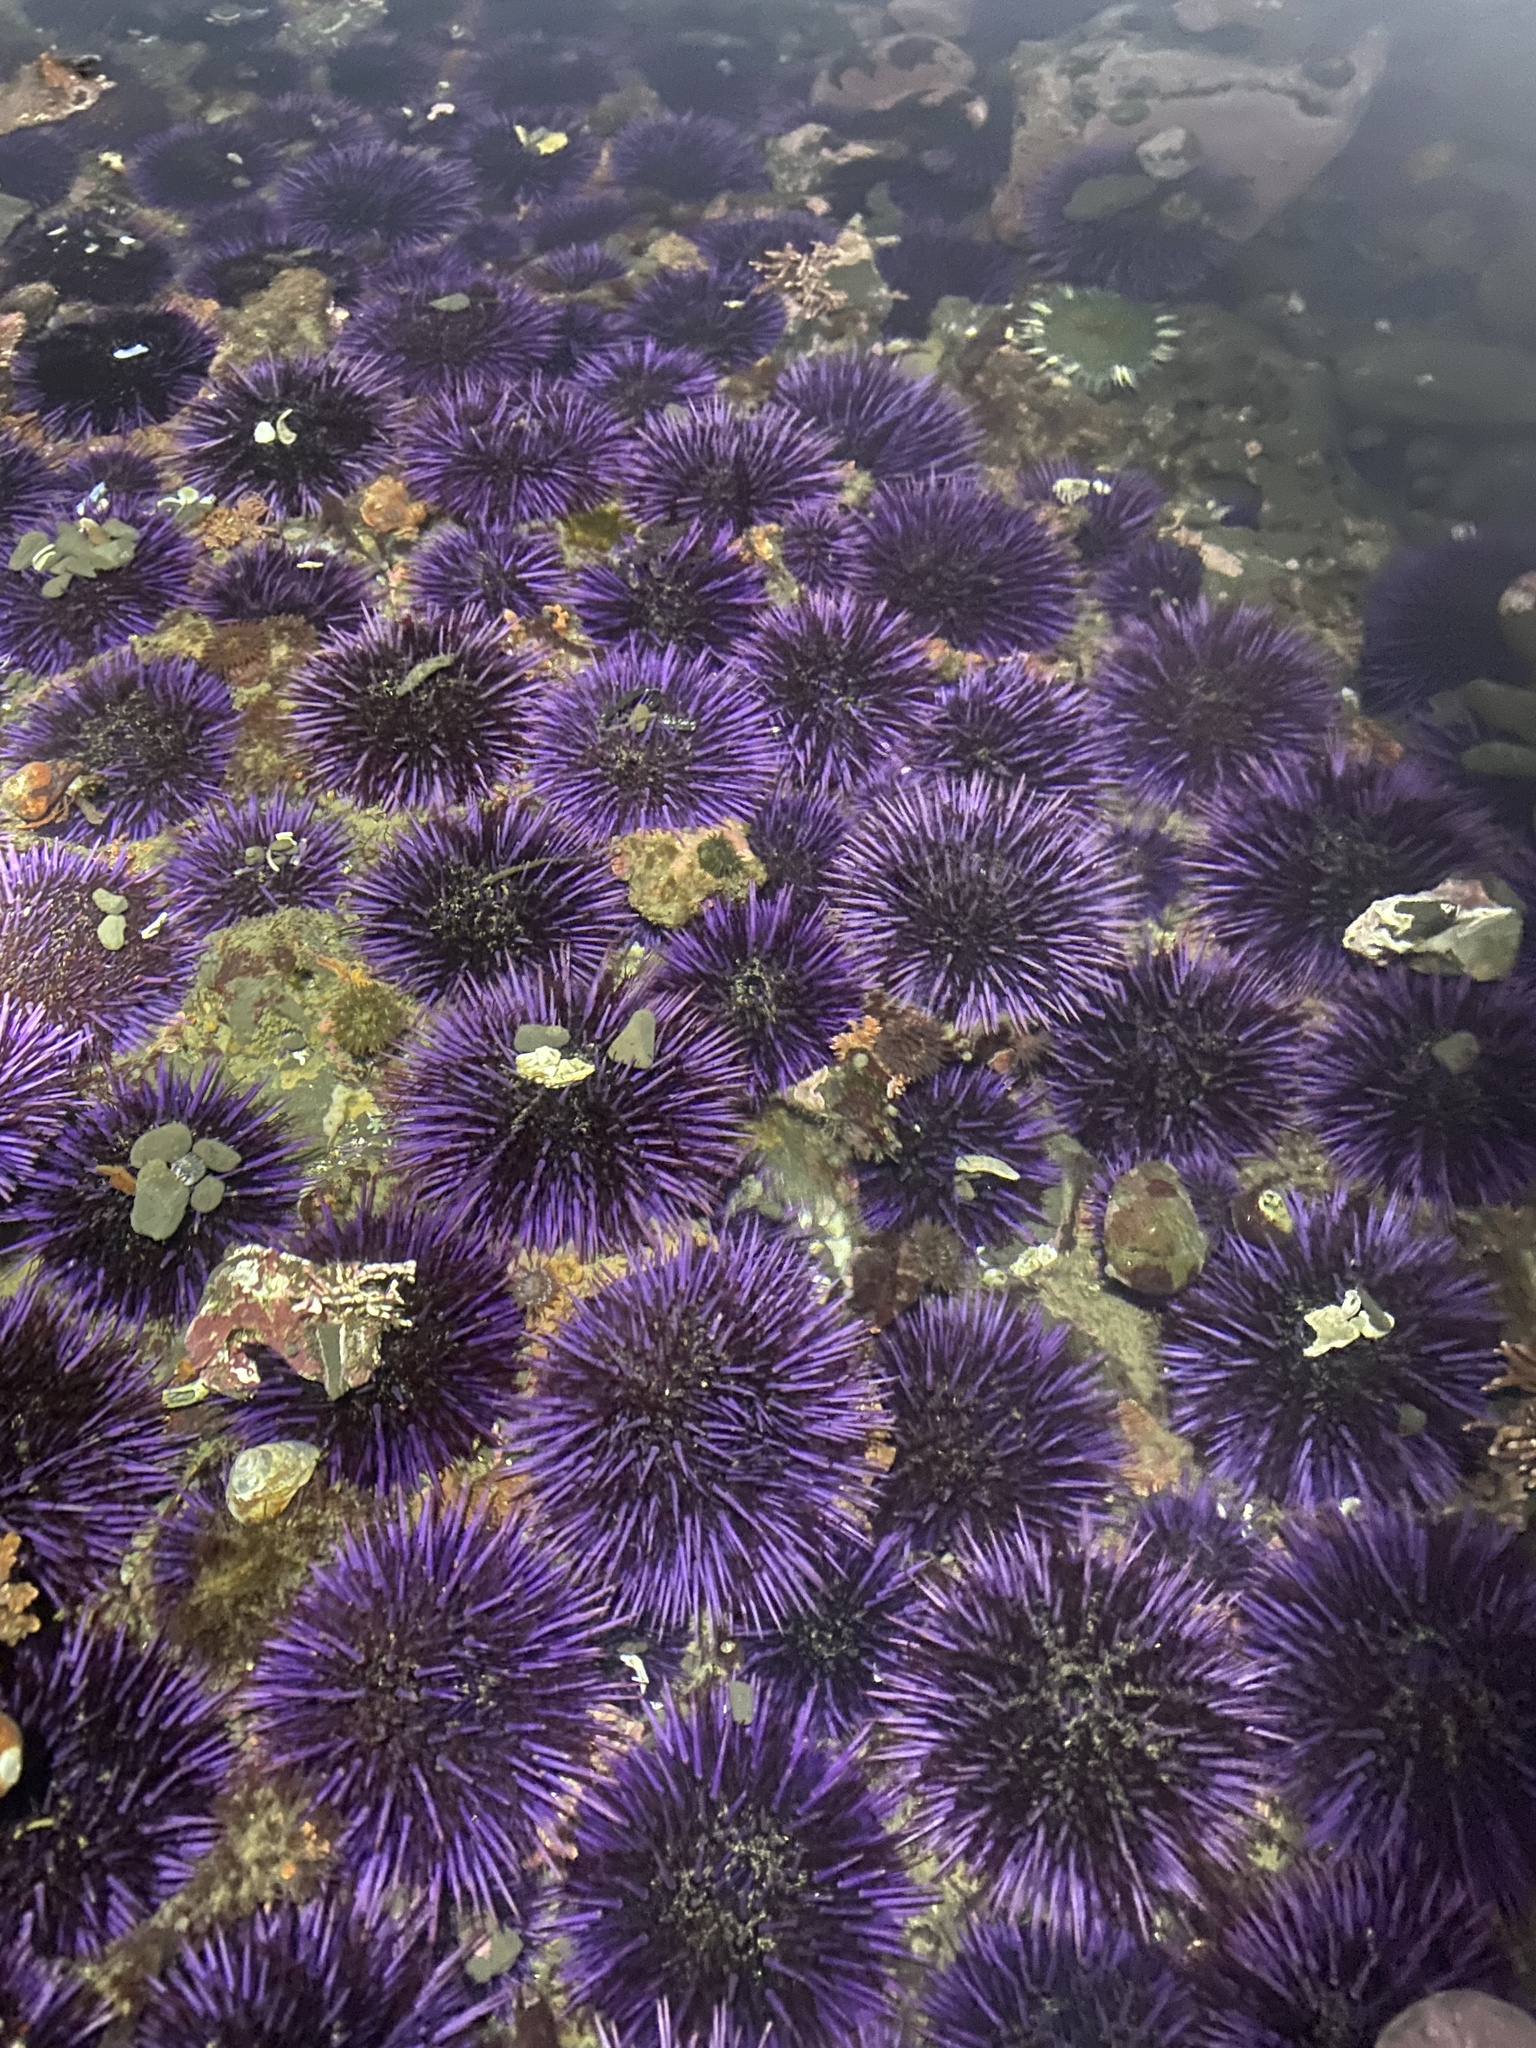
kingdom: Animalia
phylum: Echinodermata
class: Echinoidea
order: Camarodonta
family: Strongylocentrotidae
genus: Strongylocentrotus
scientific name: Strongylocentrotus purpuratus
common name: Purple sea urchin
